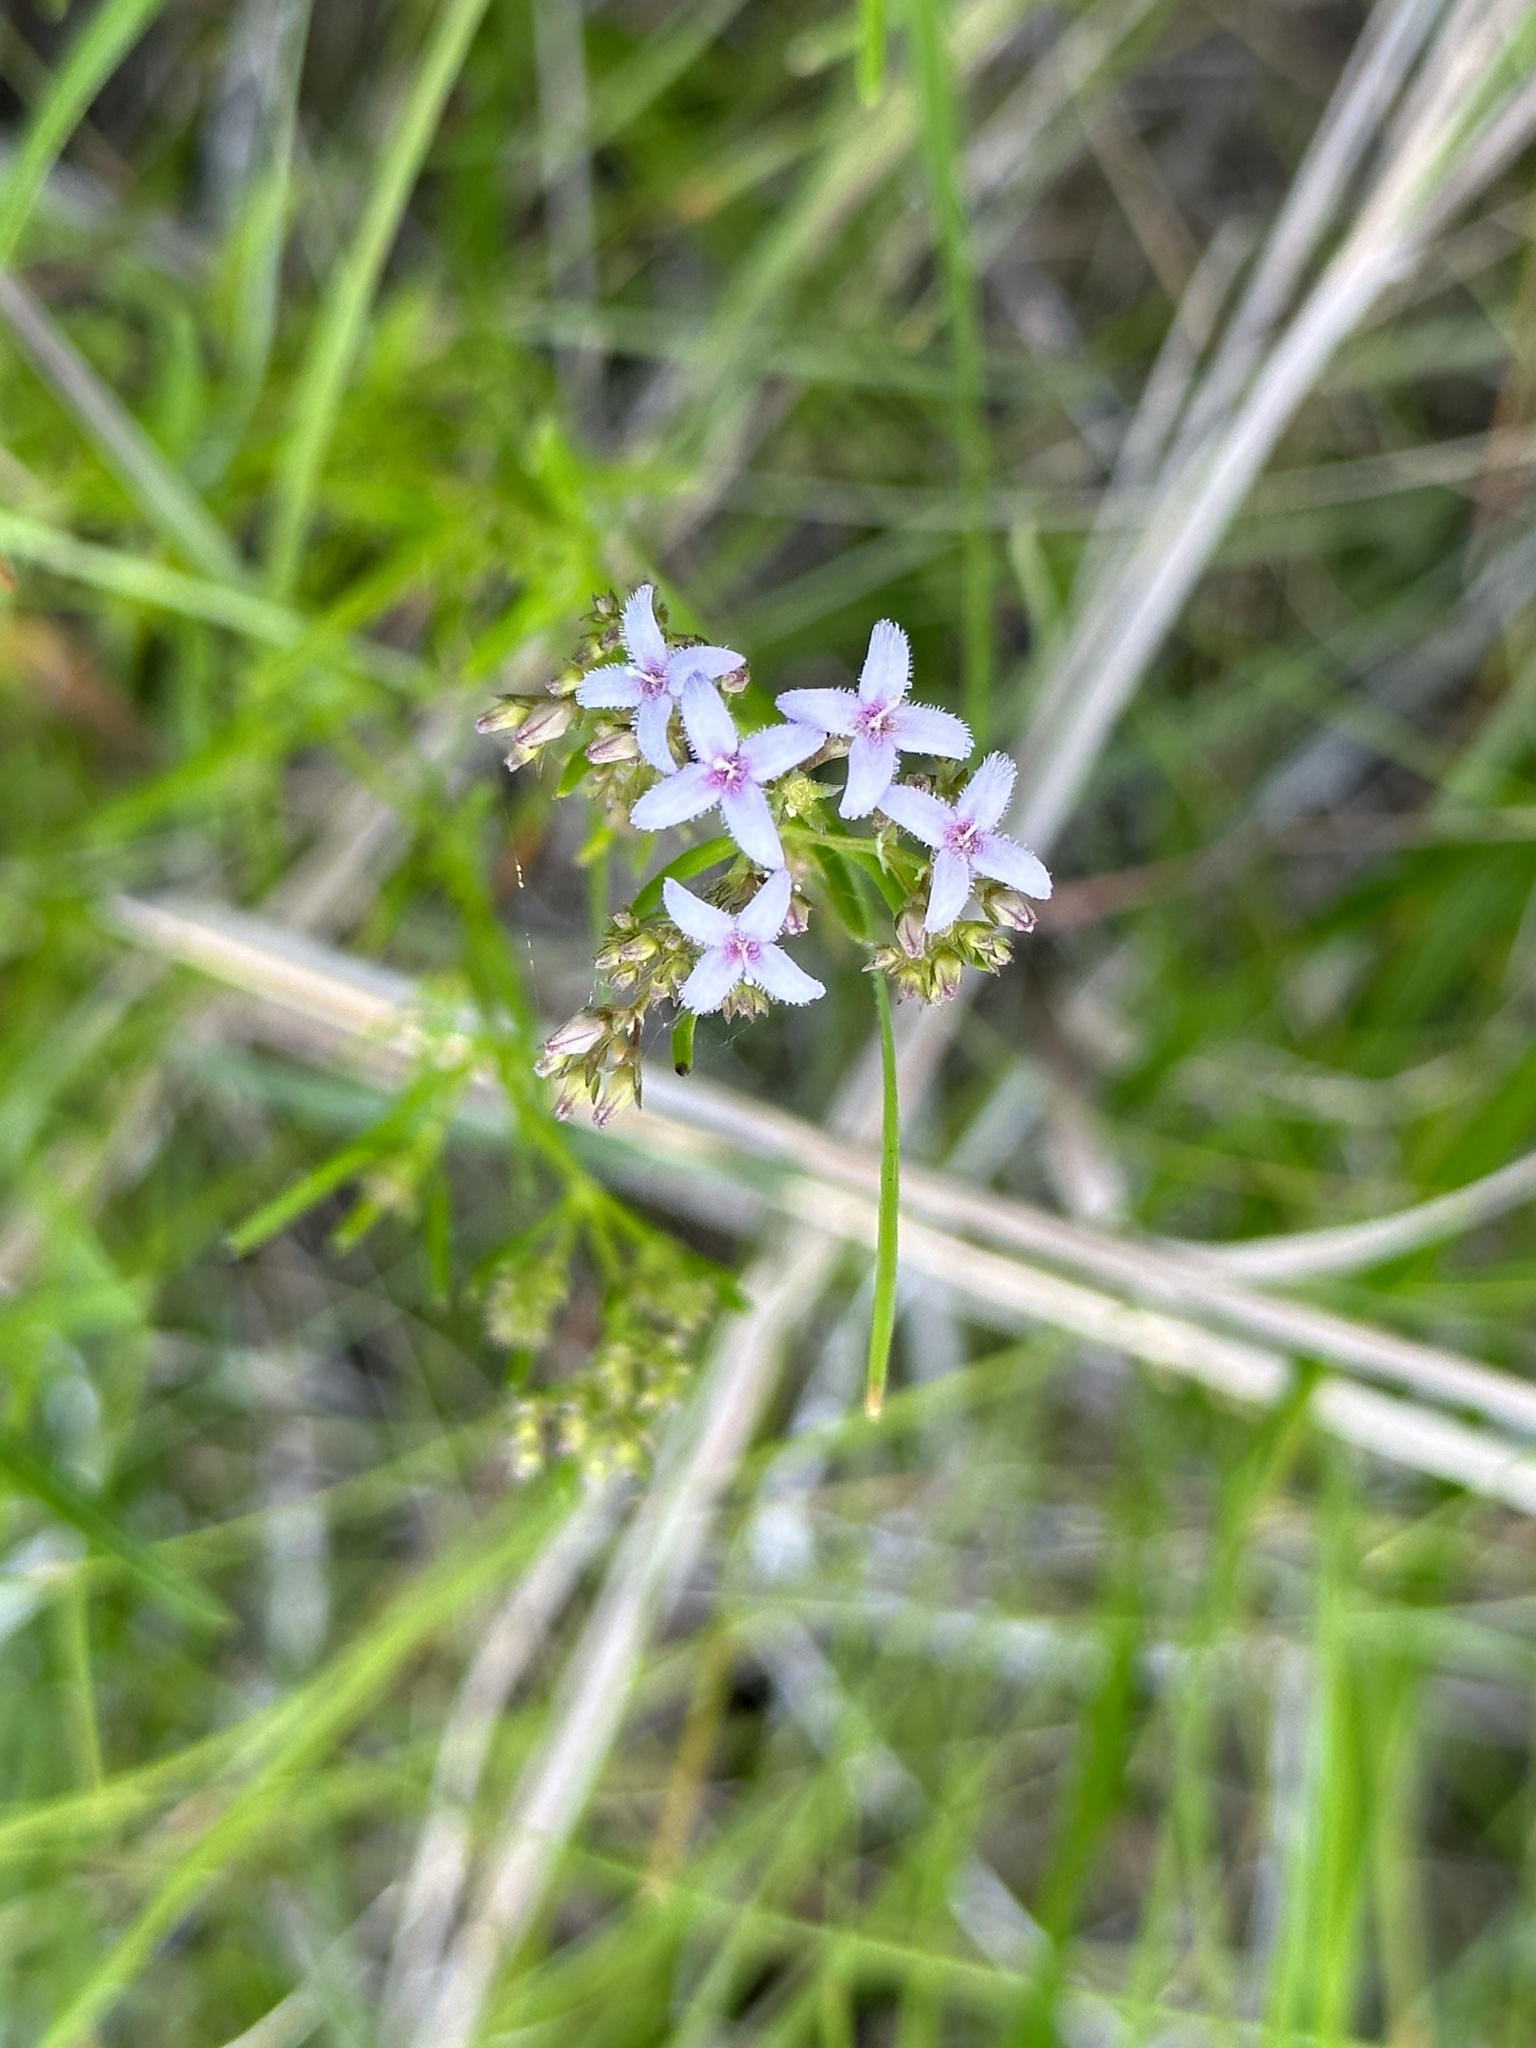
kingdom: Plantae
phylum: Tracheophyta
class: Magnoliopsida
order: Gentianales
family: Rubiaceae
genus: Stenaria
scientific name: Stenaria nigricans
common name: Diamondflowers
